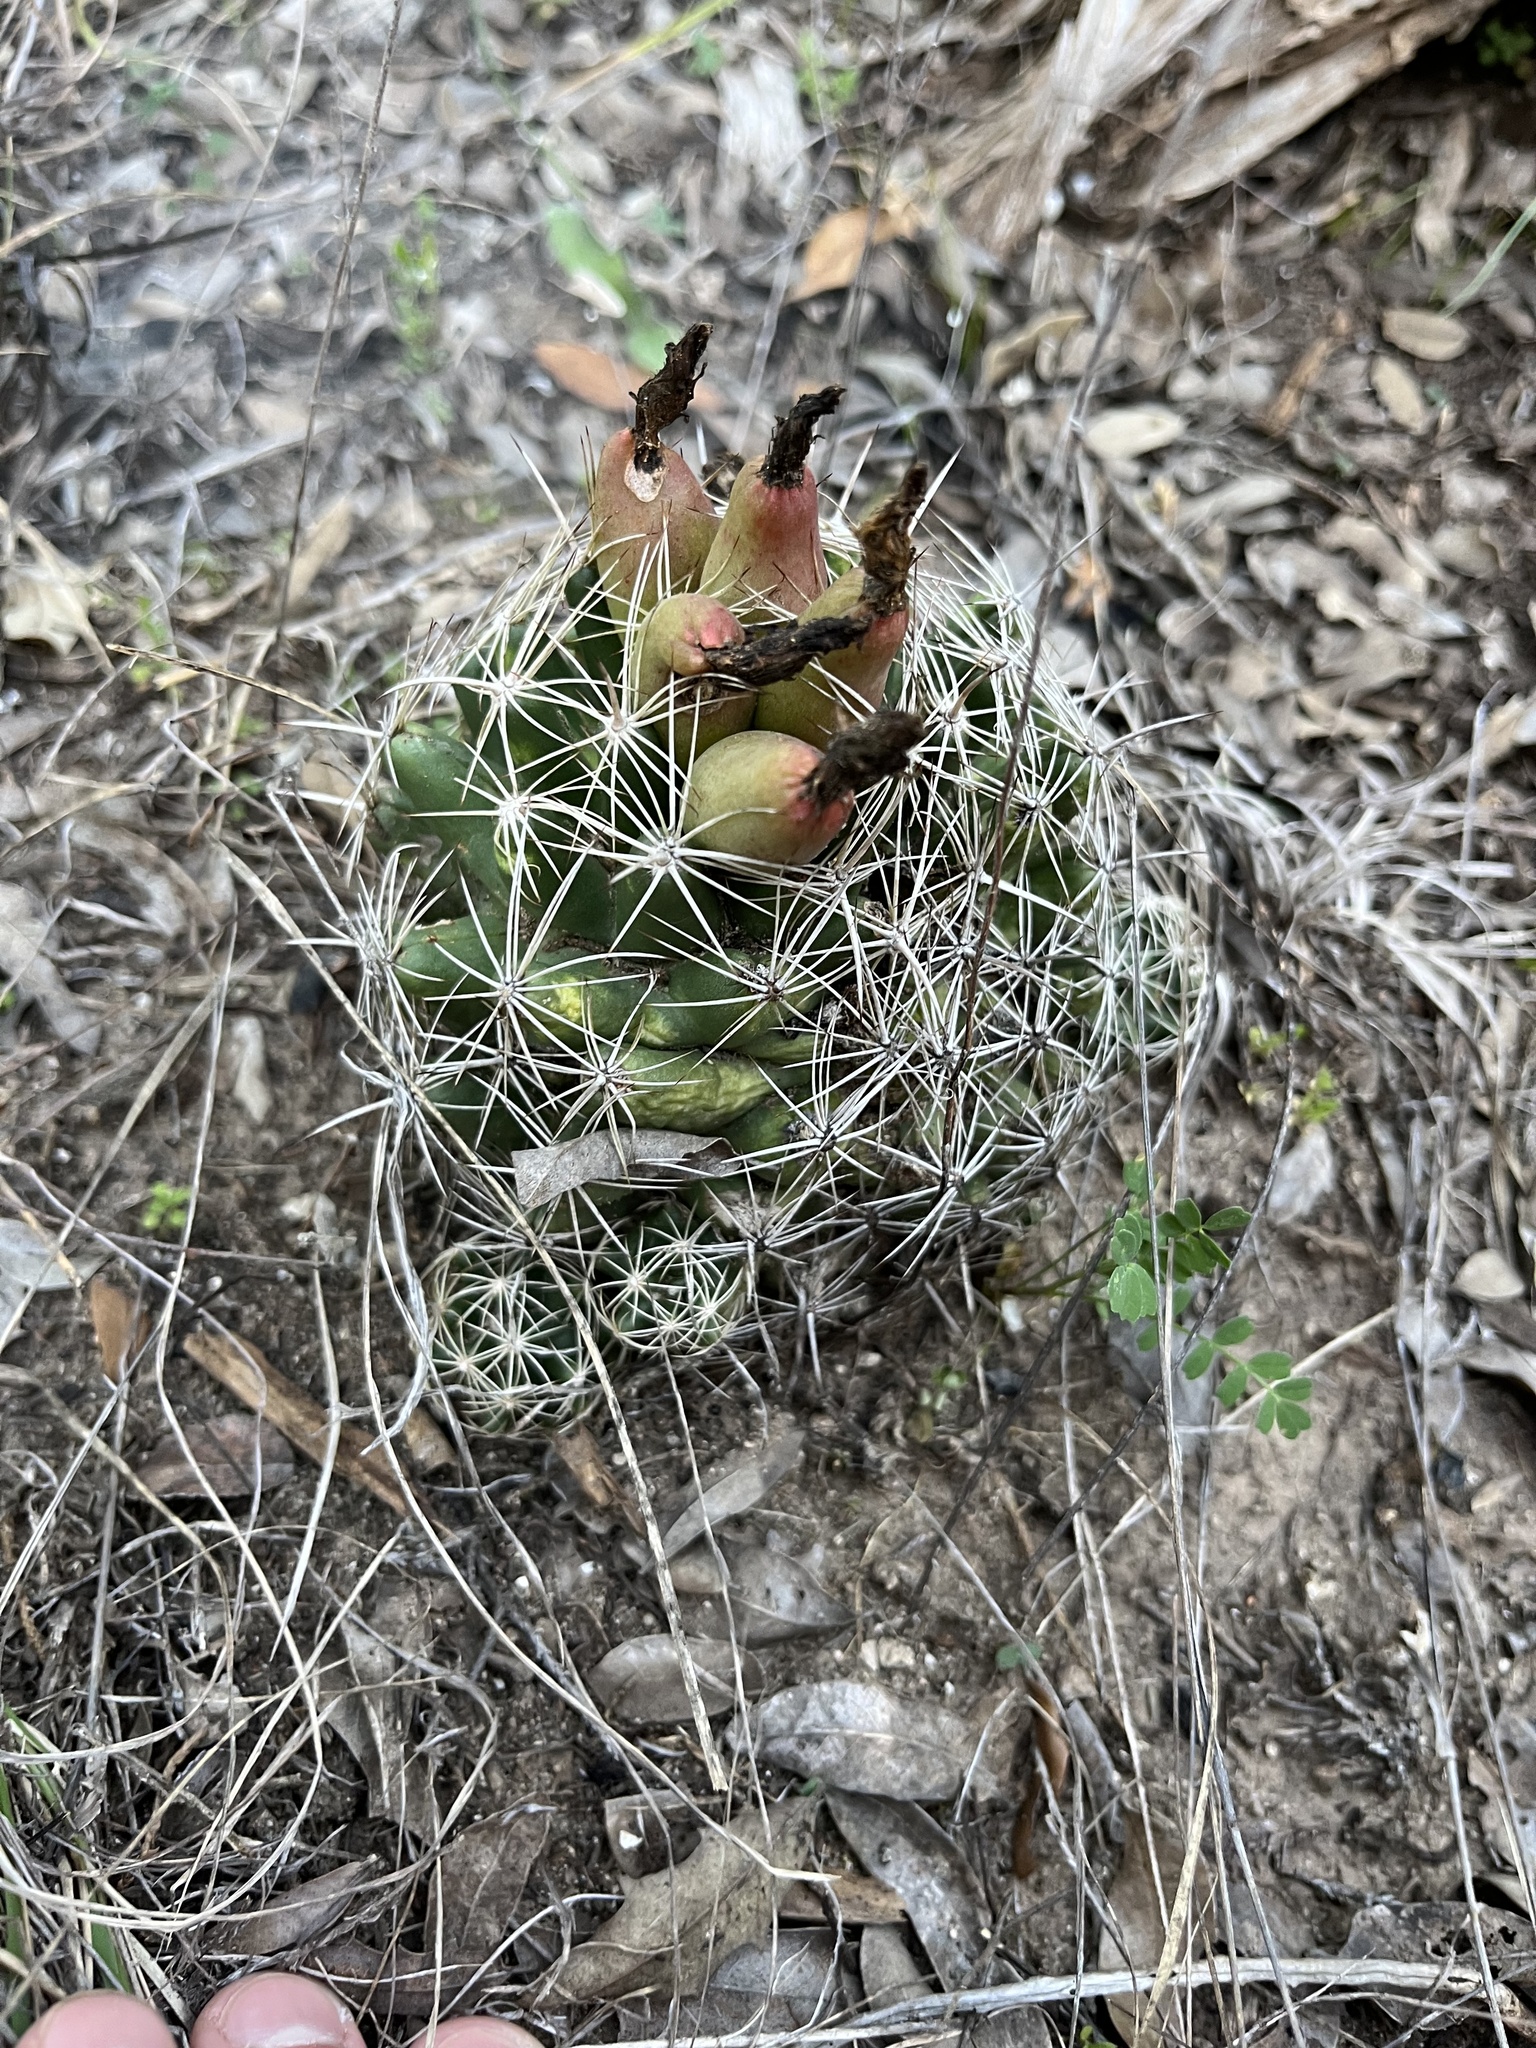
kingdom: Plantae
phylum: Tracheophyta
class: Magnoliopsida
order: Caryophyllales
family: Cactaceae
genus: Coryphantha
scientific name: Coryphantha sulcata
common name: Finger cactus
